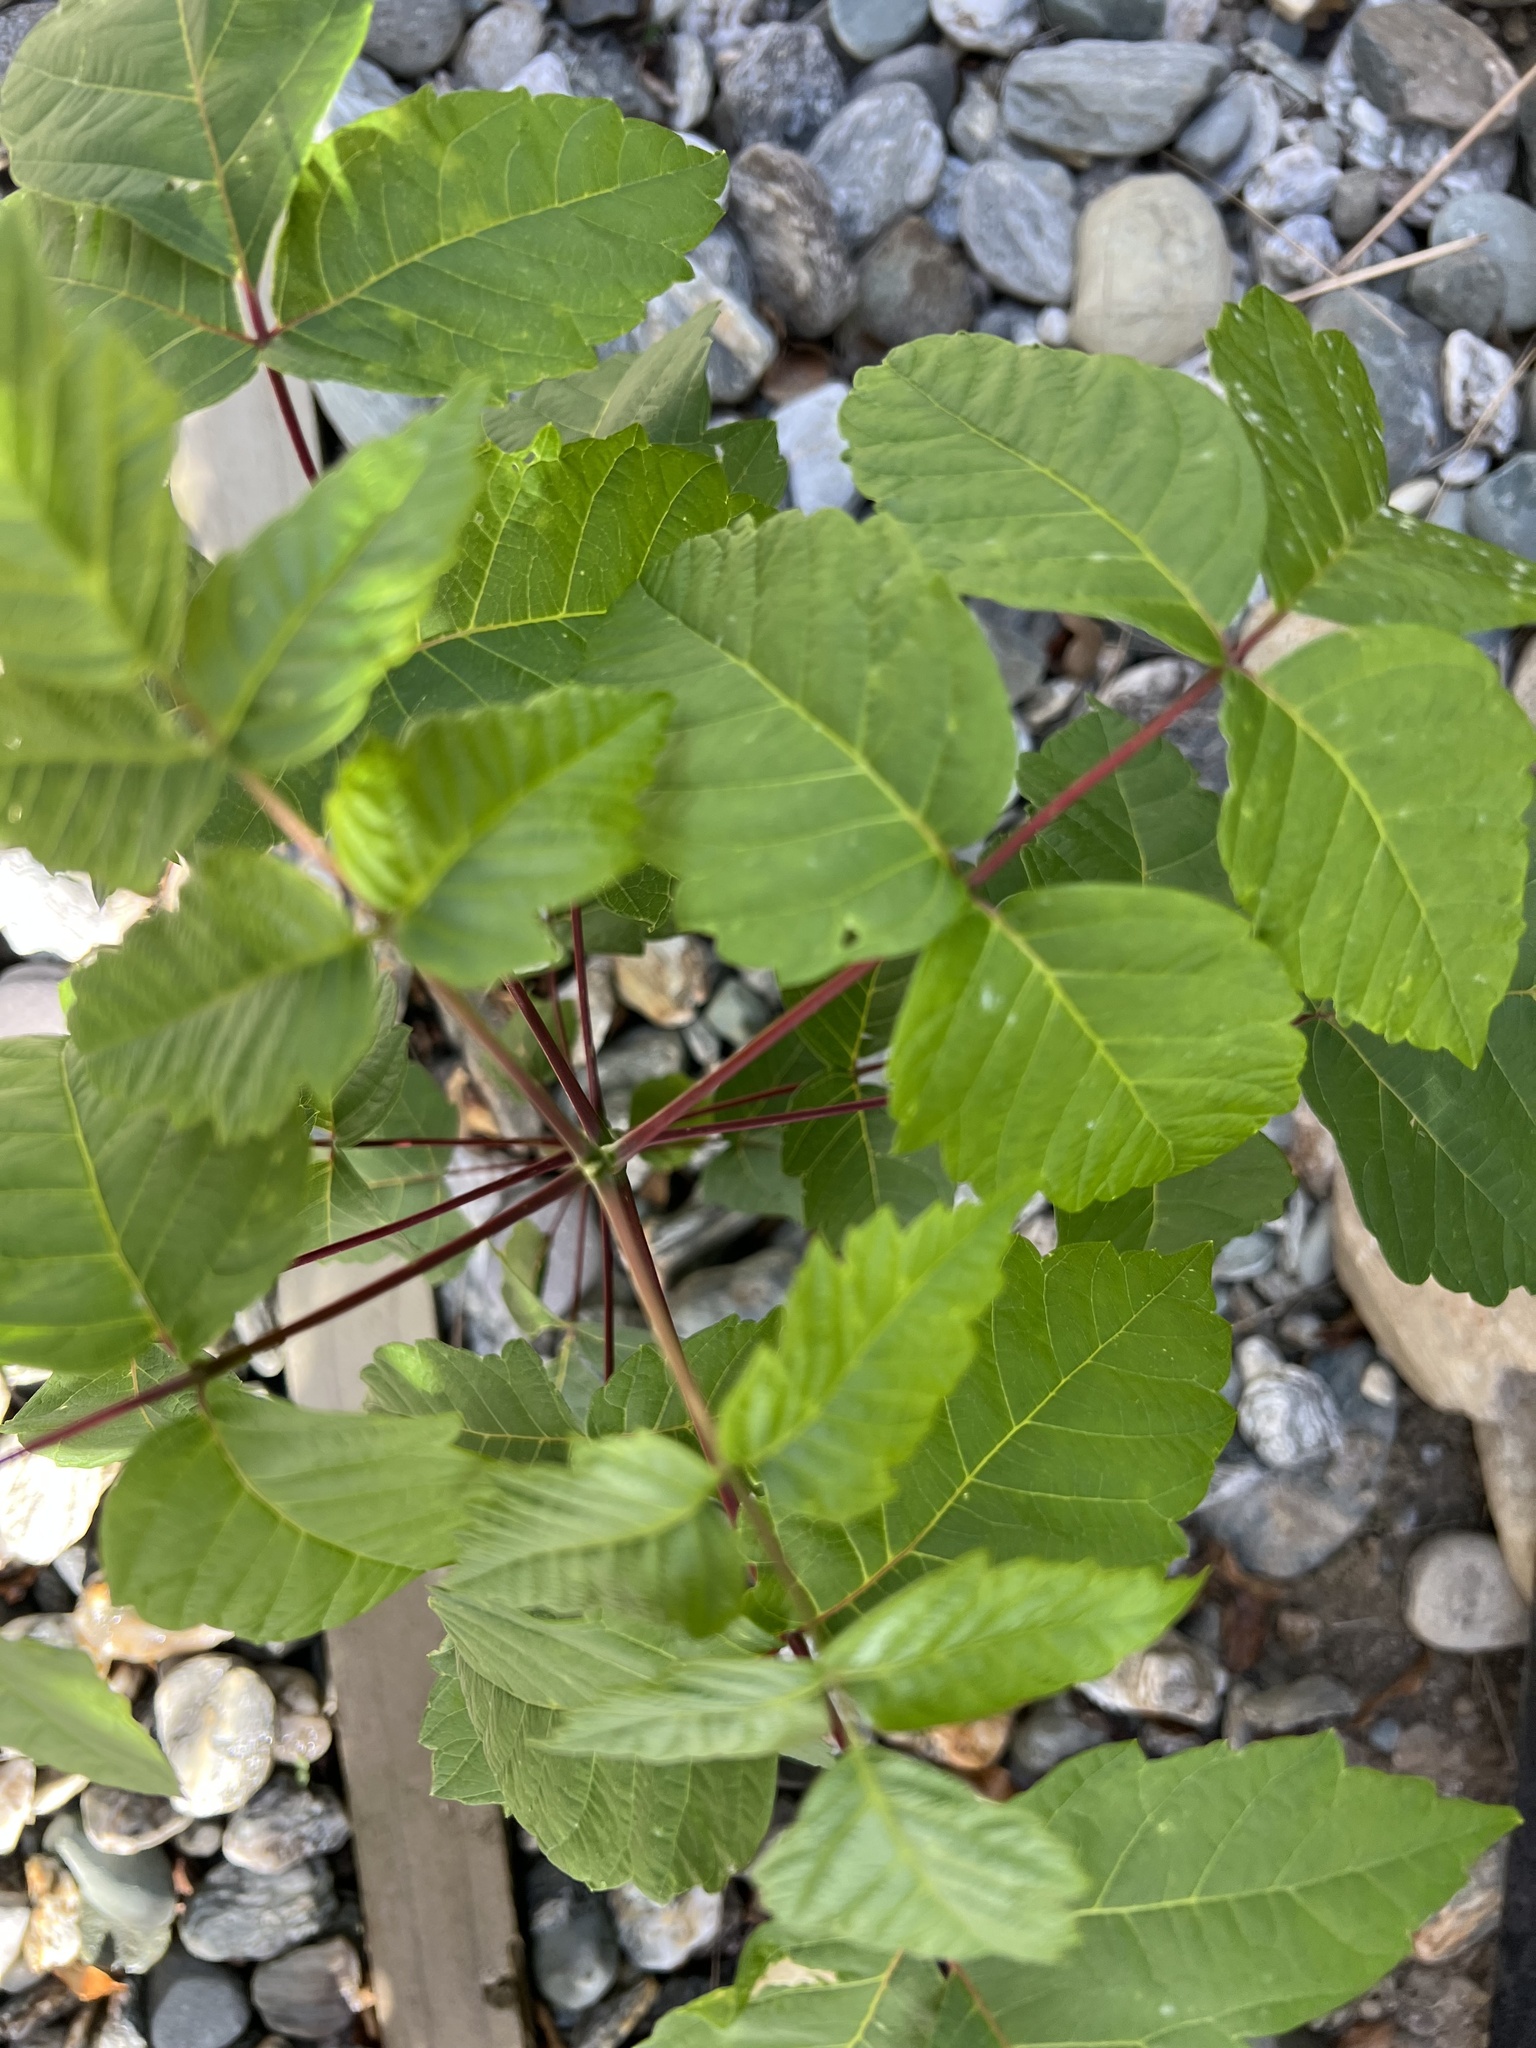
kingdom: Plantae
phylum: Tracheophyta
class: Magnoliopsida
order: Sapindales
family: Sapindaceae
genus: Acer
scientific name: Acer negundo
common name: Ashleaf maple
